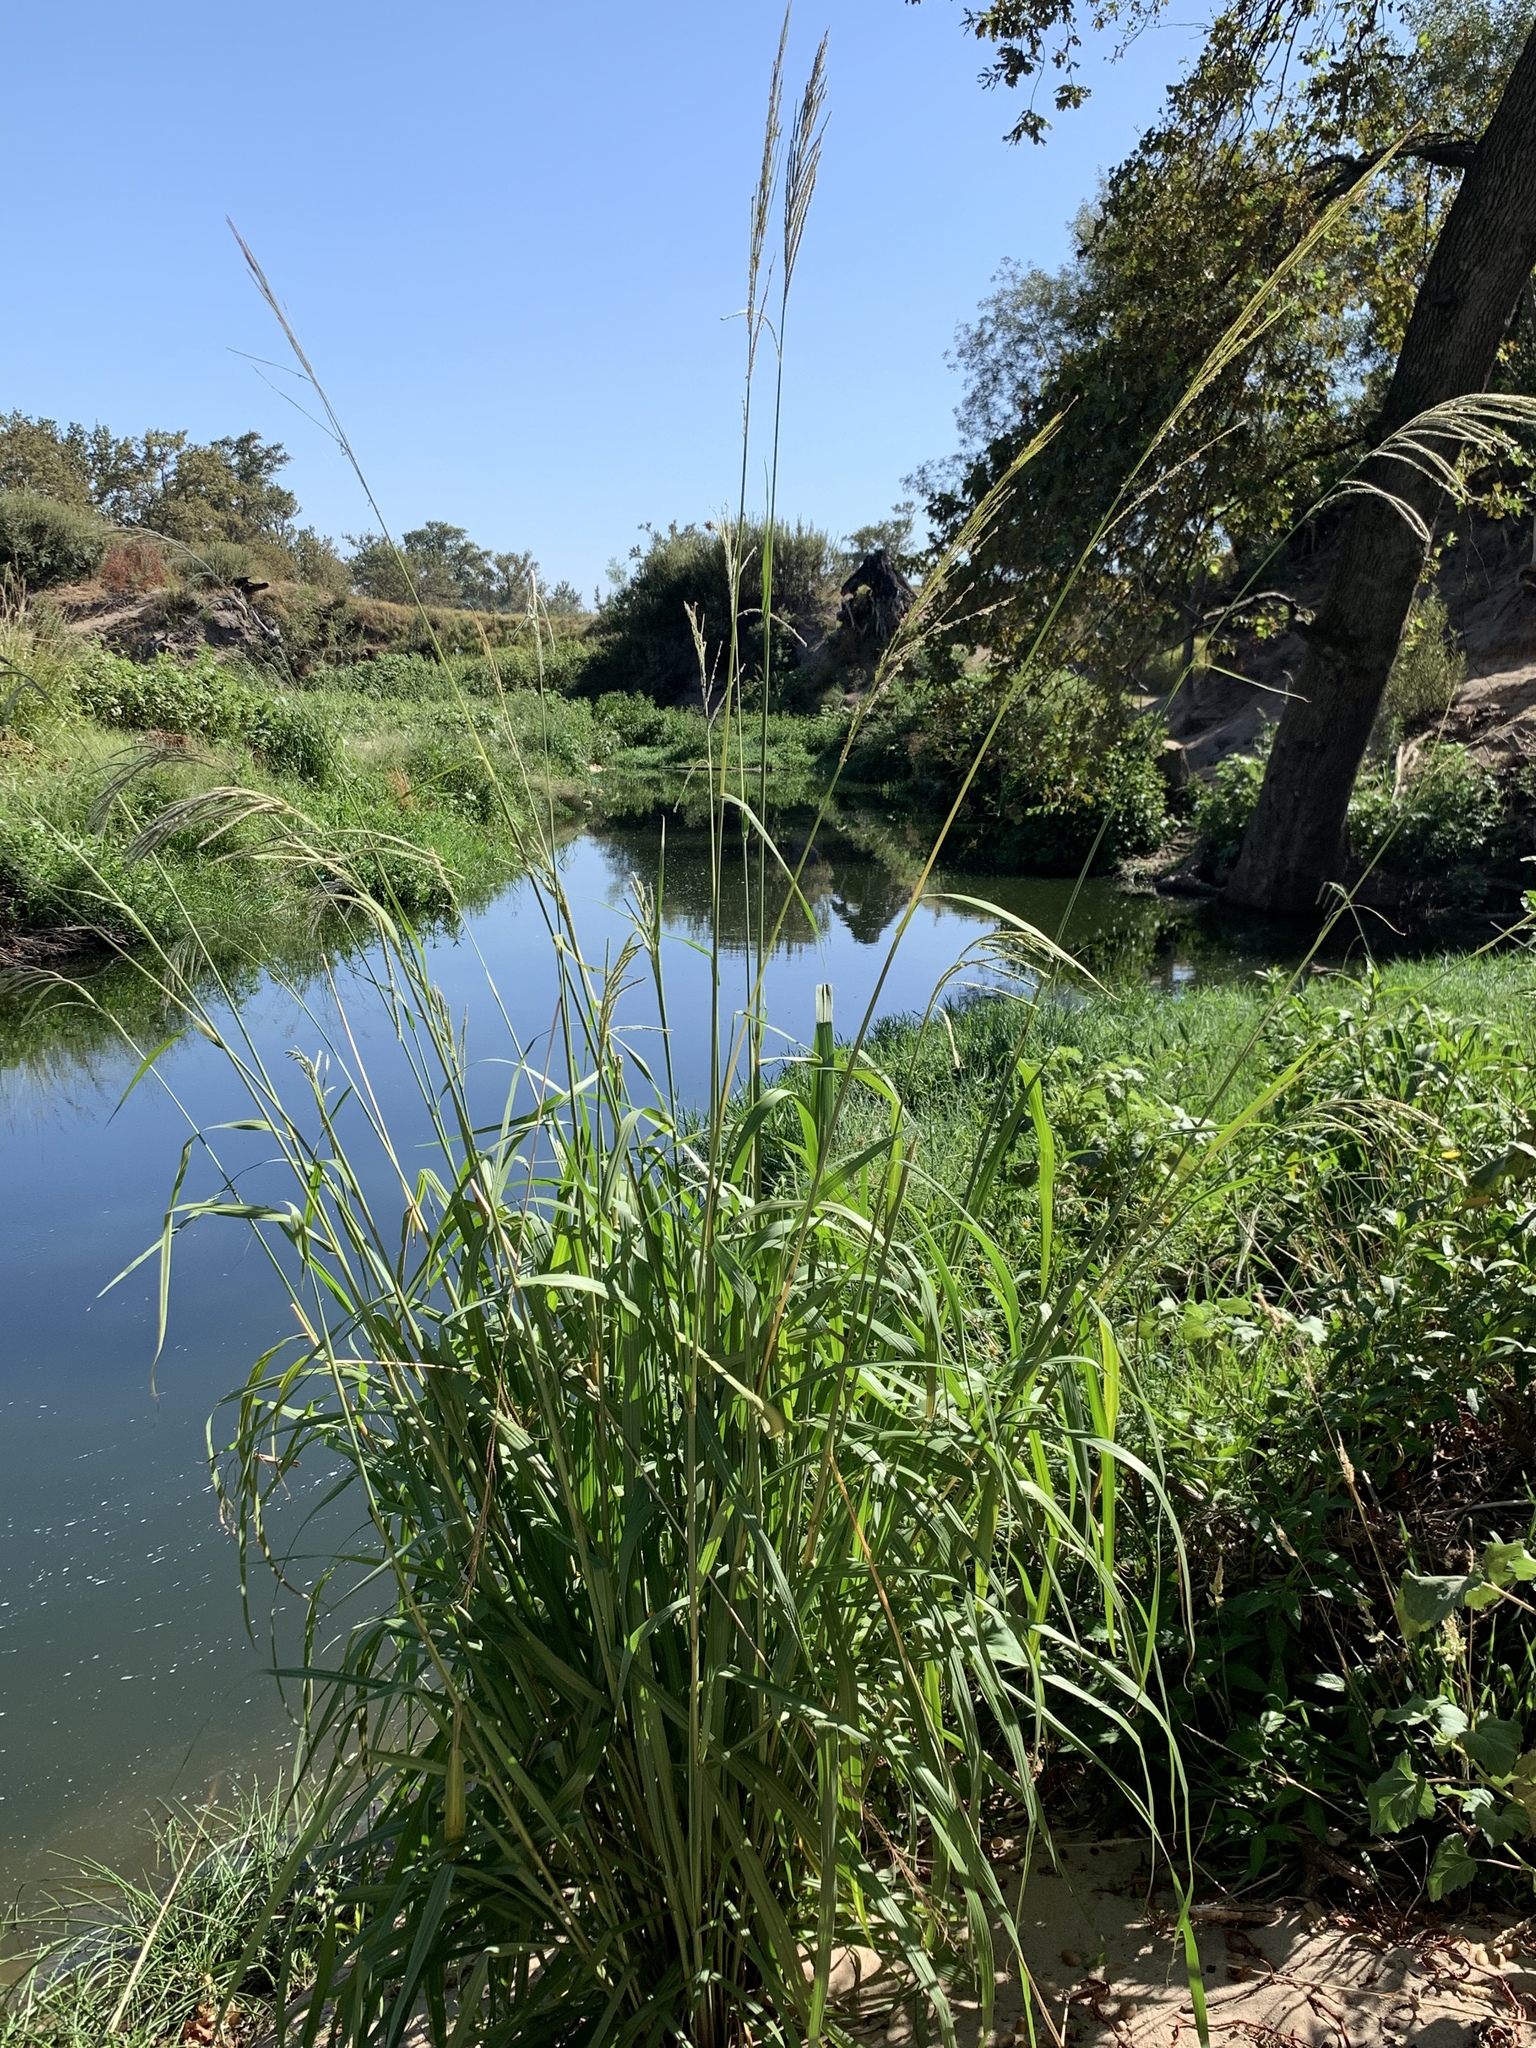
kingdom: Plantae
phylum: Tracheophyta
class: Liliopsida
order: Poales
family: Poaceae
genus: Paspalum
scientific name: Paspalum urvillei
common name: Vasey's grass
